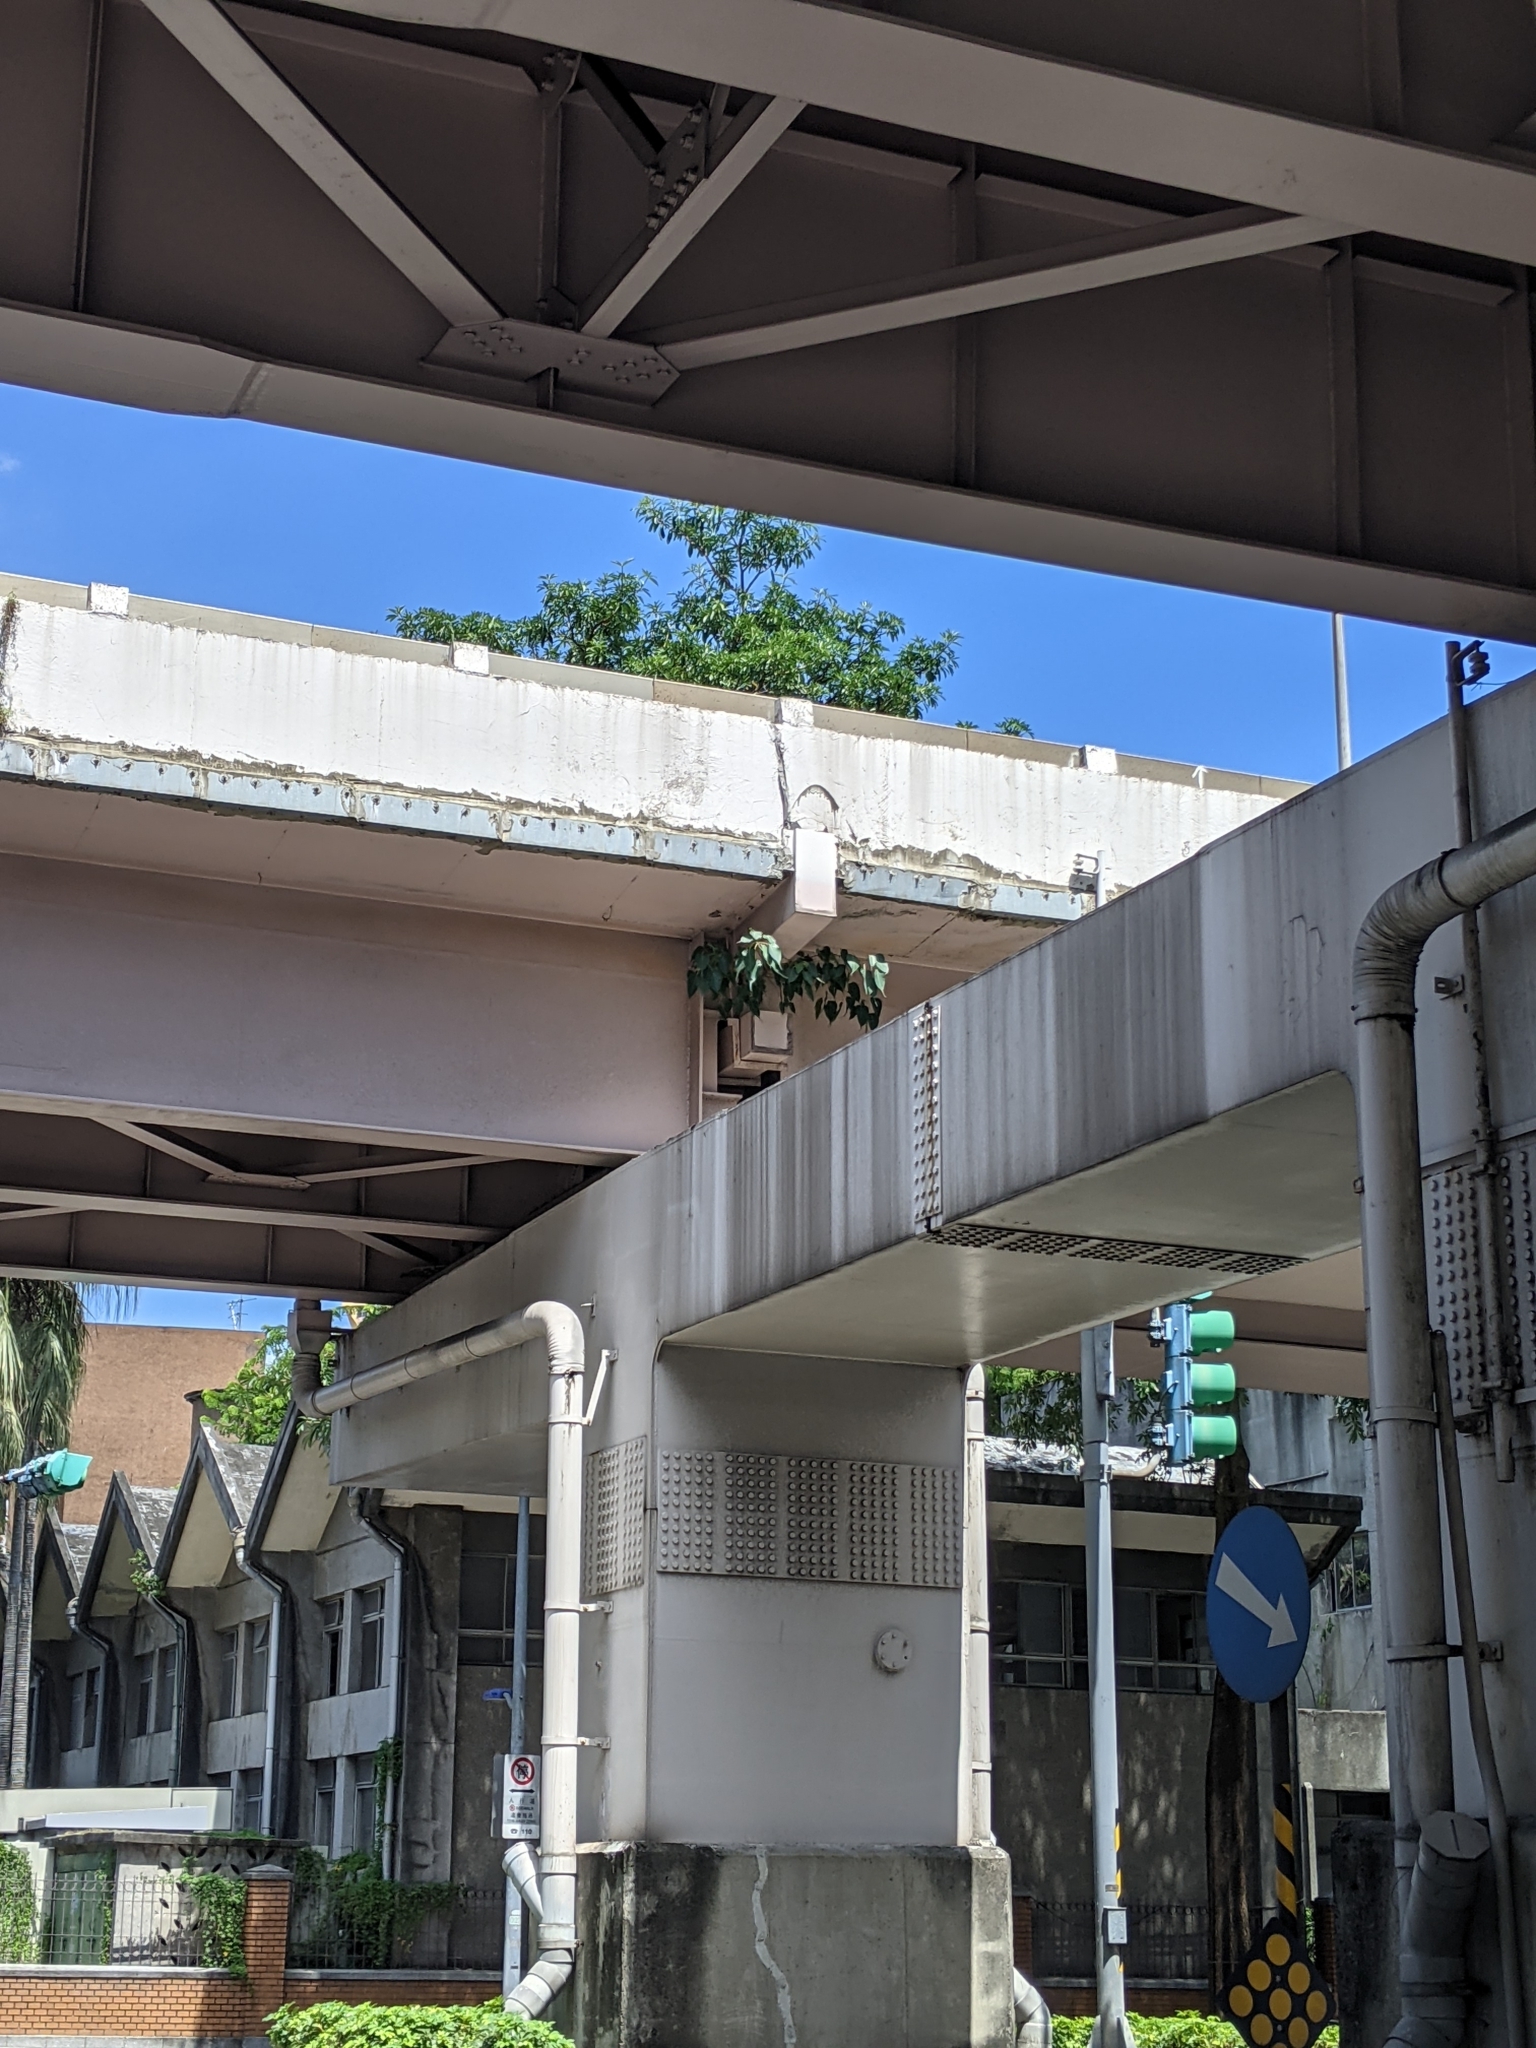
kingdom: Plantae
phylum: Tracheophyta
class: Magnoliopsida
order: Rosales
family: Moraceae
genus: Ficus
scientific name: Ficus religiosa
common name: Bodhi tree
